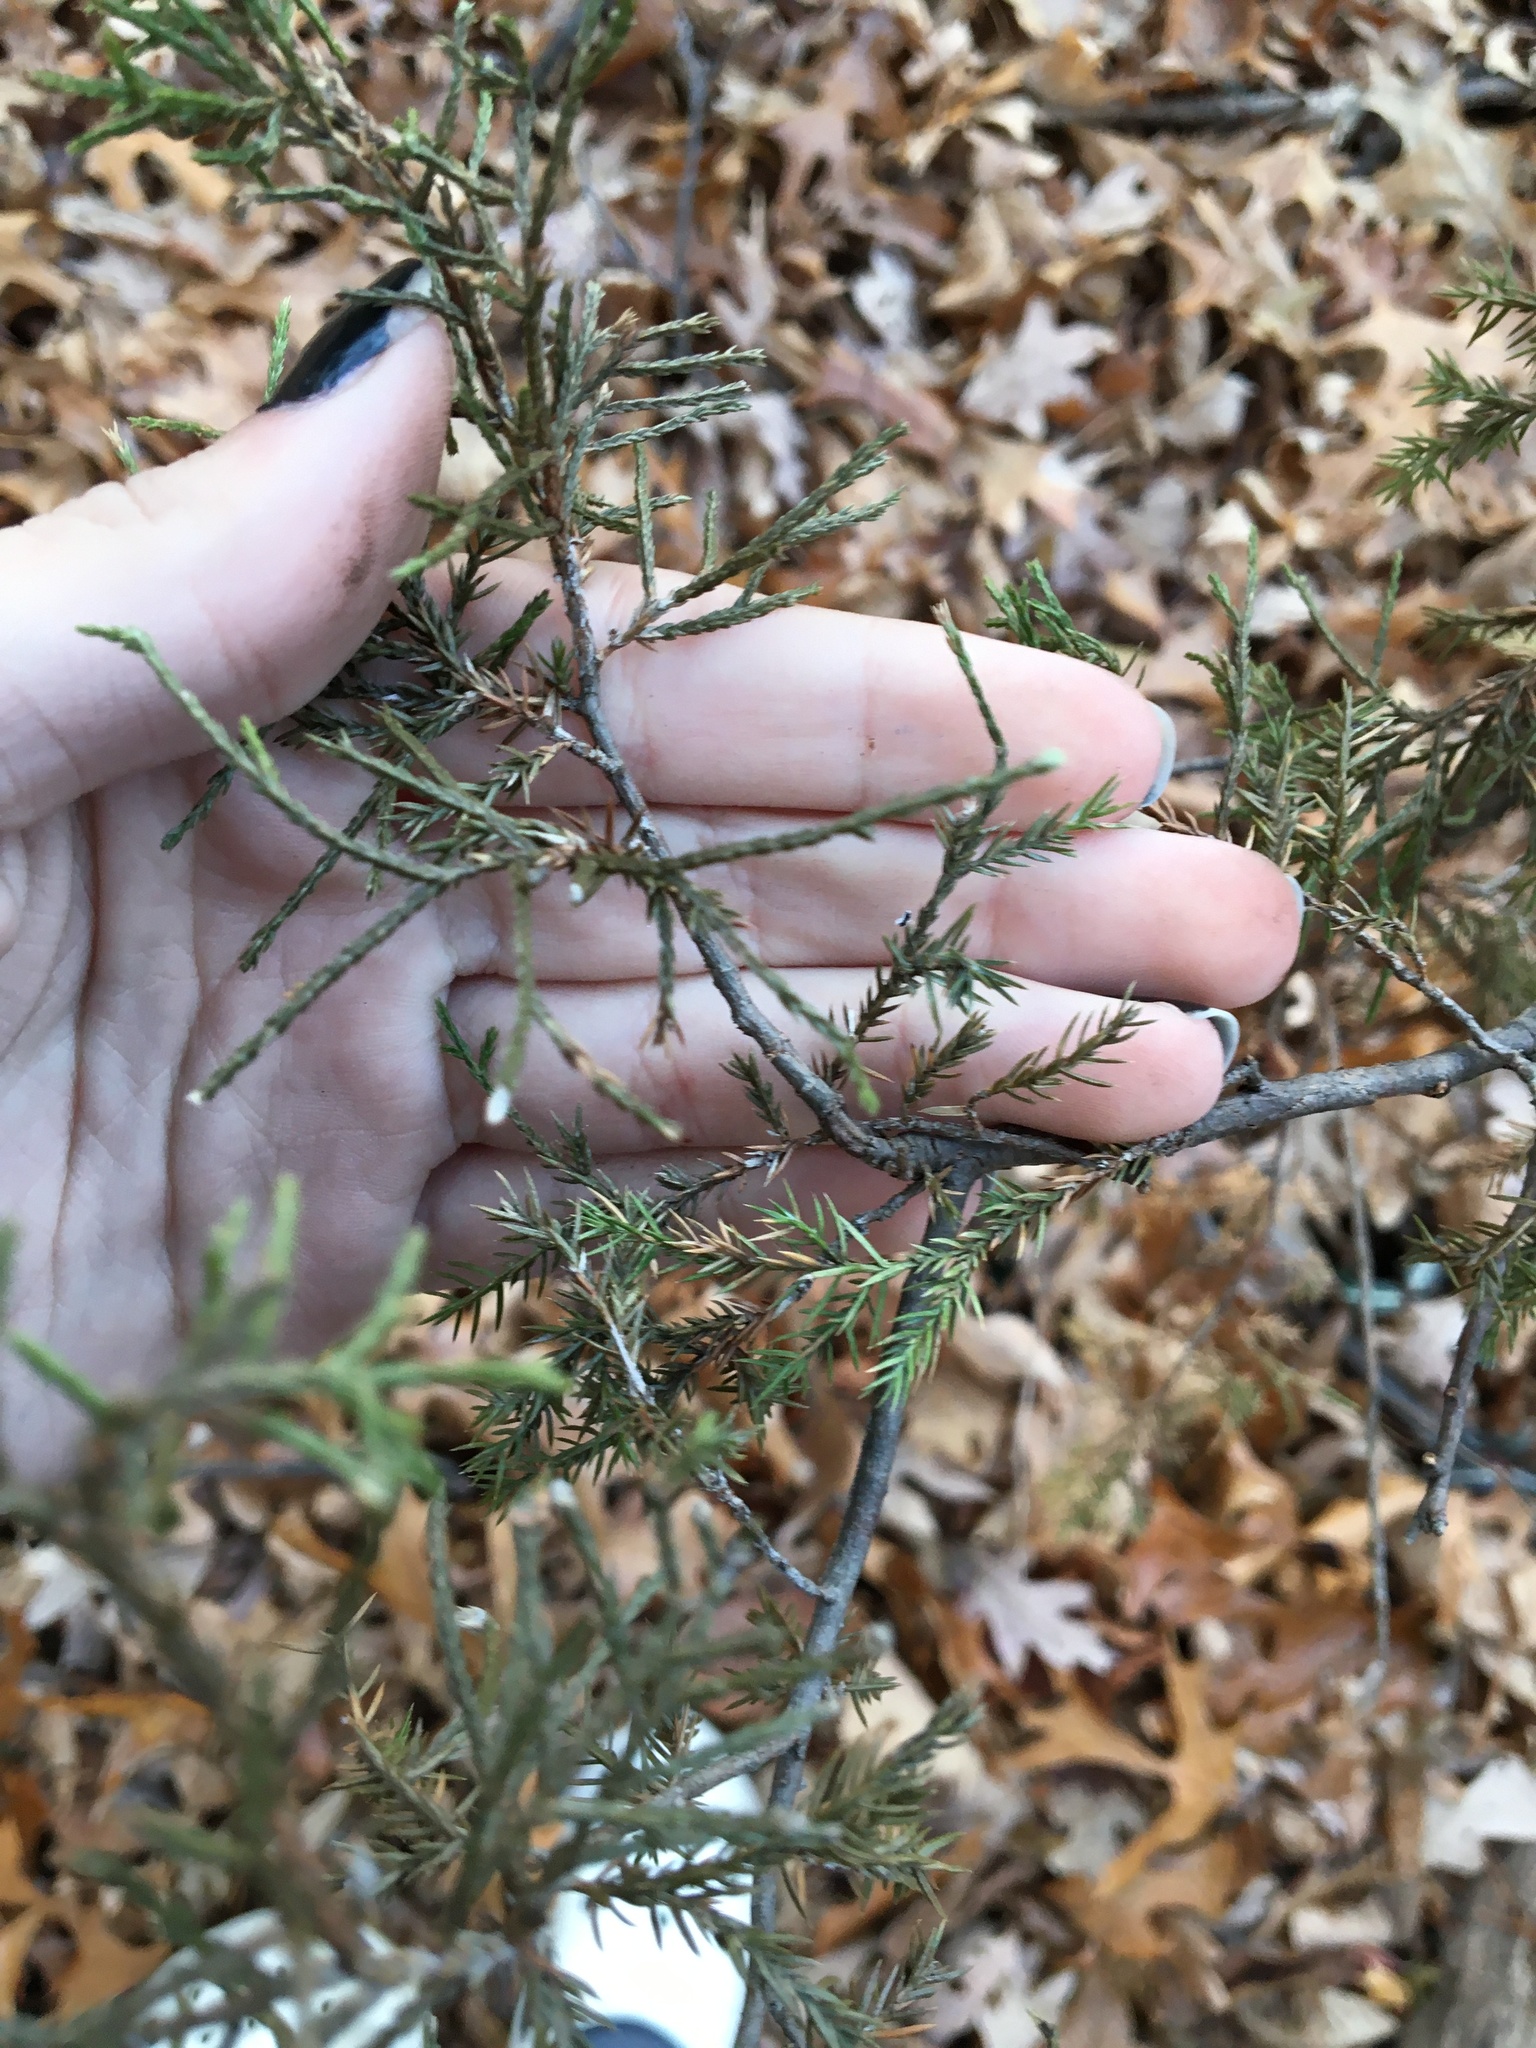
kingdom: Plantae
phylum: Tracheophyta
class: Pinopsida
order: Pinales
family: Cupressaceae
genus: Juniperus
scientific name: Juniperus virginiana
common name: Red juniper
